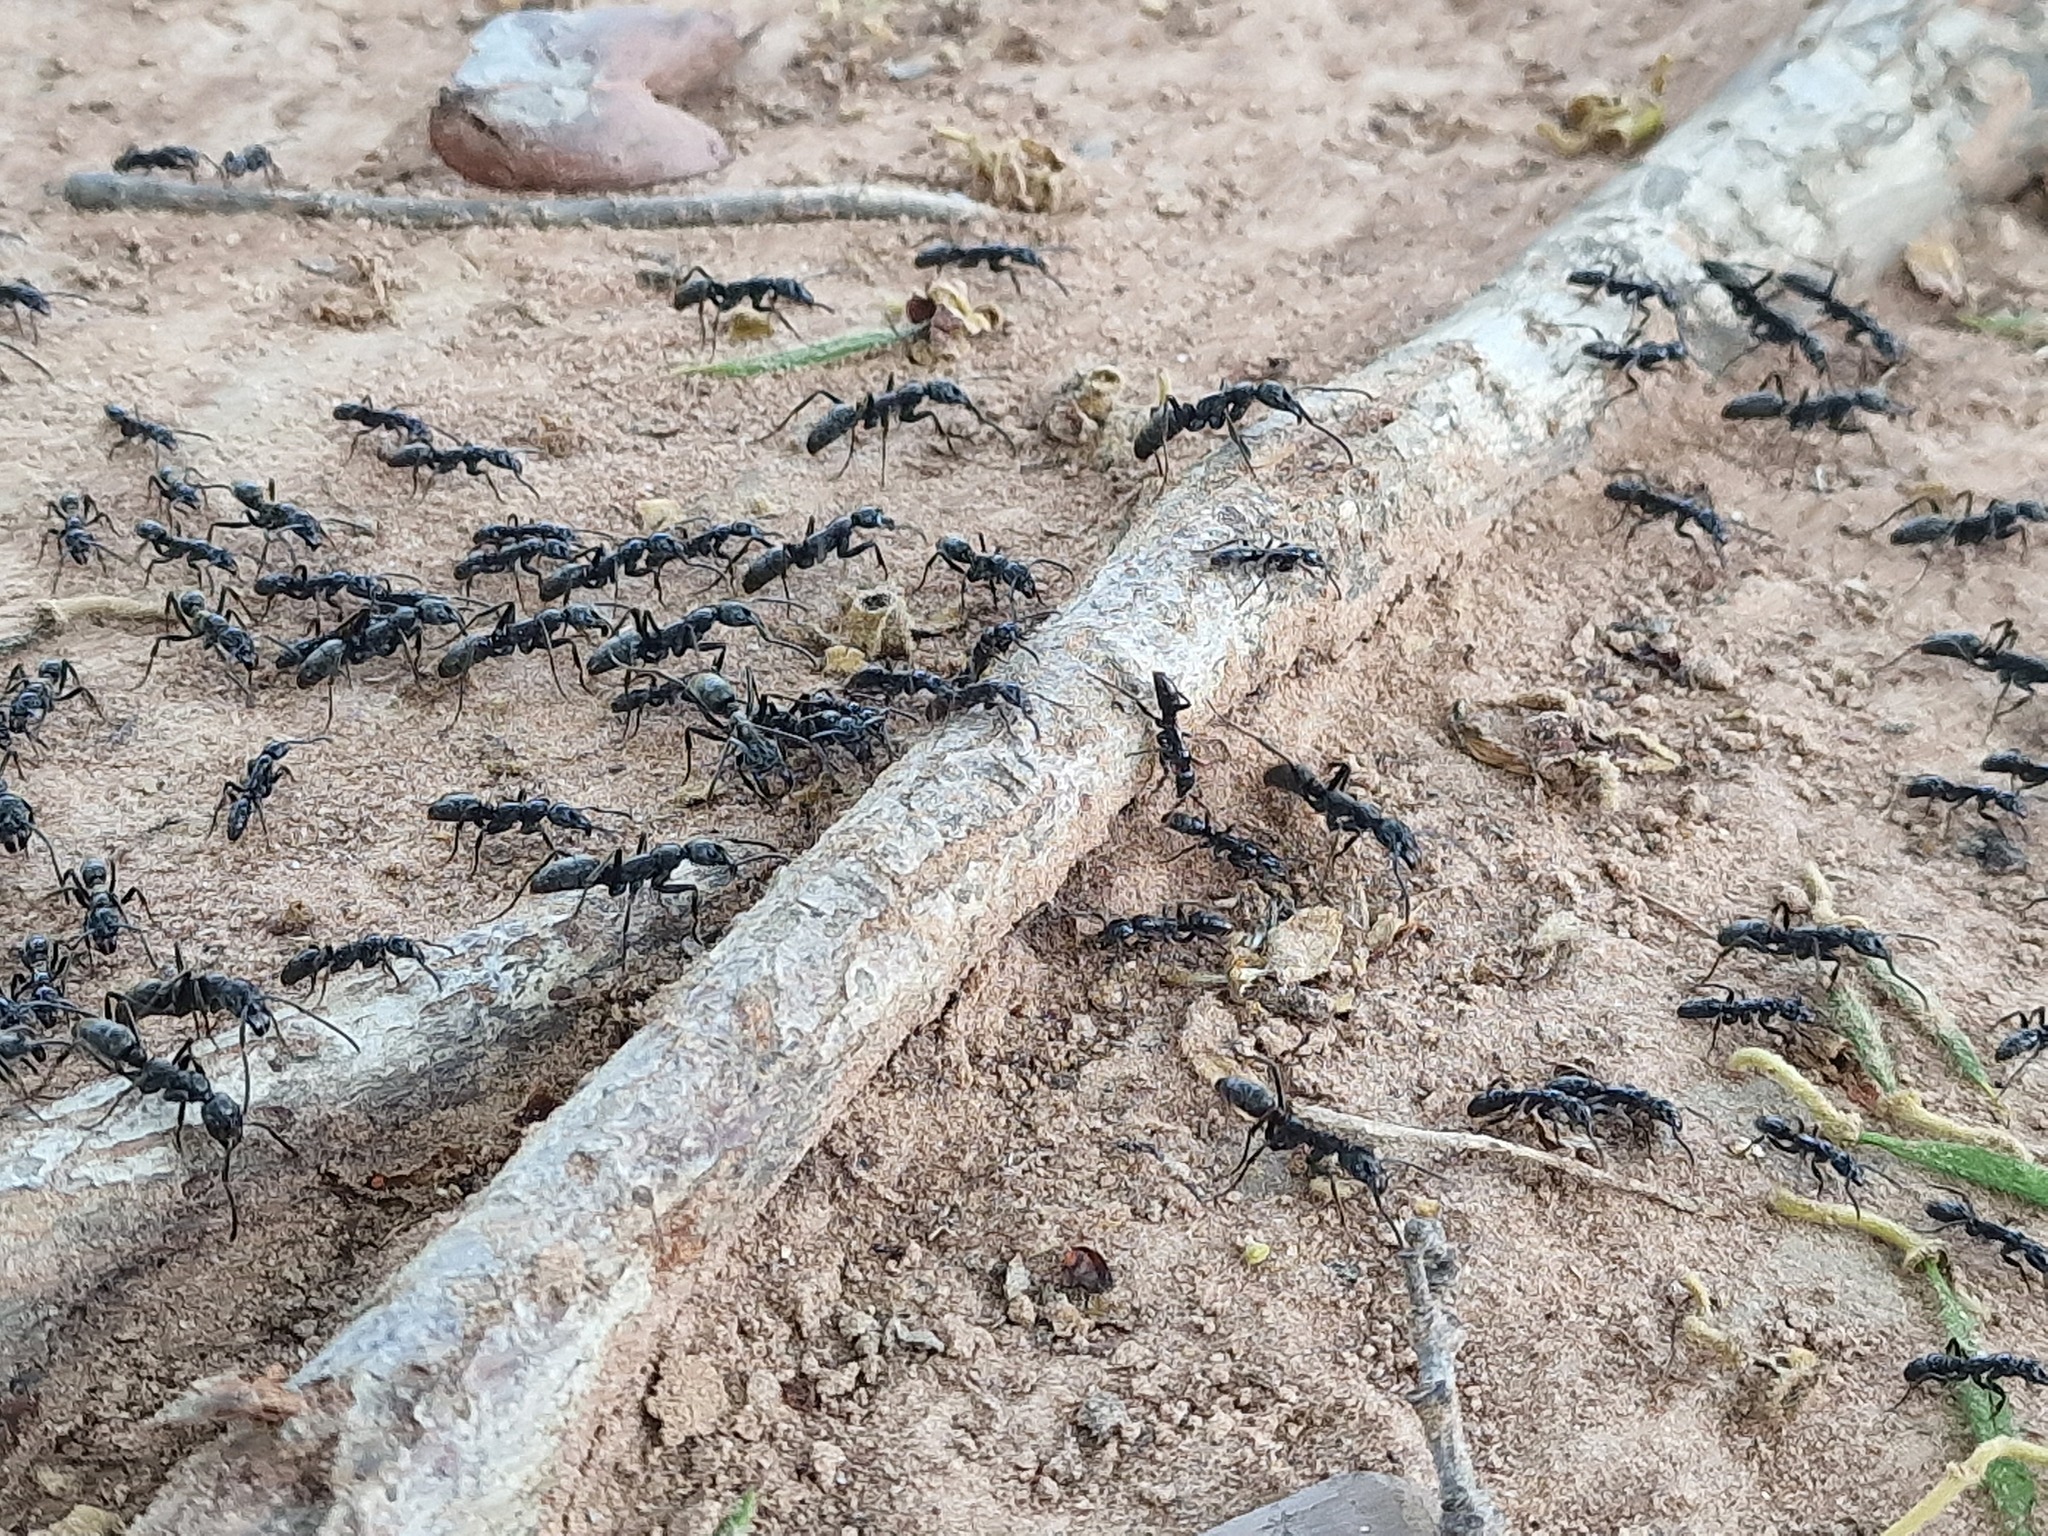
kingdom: Animalia
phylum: Arthropoda
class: Insecta
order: Hymenoptera
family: Formicidae
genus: Megaponera
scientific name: Megaponera analis
